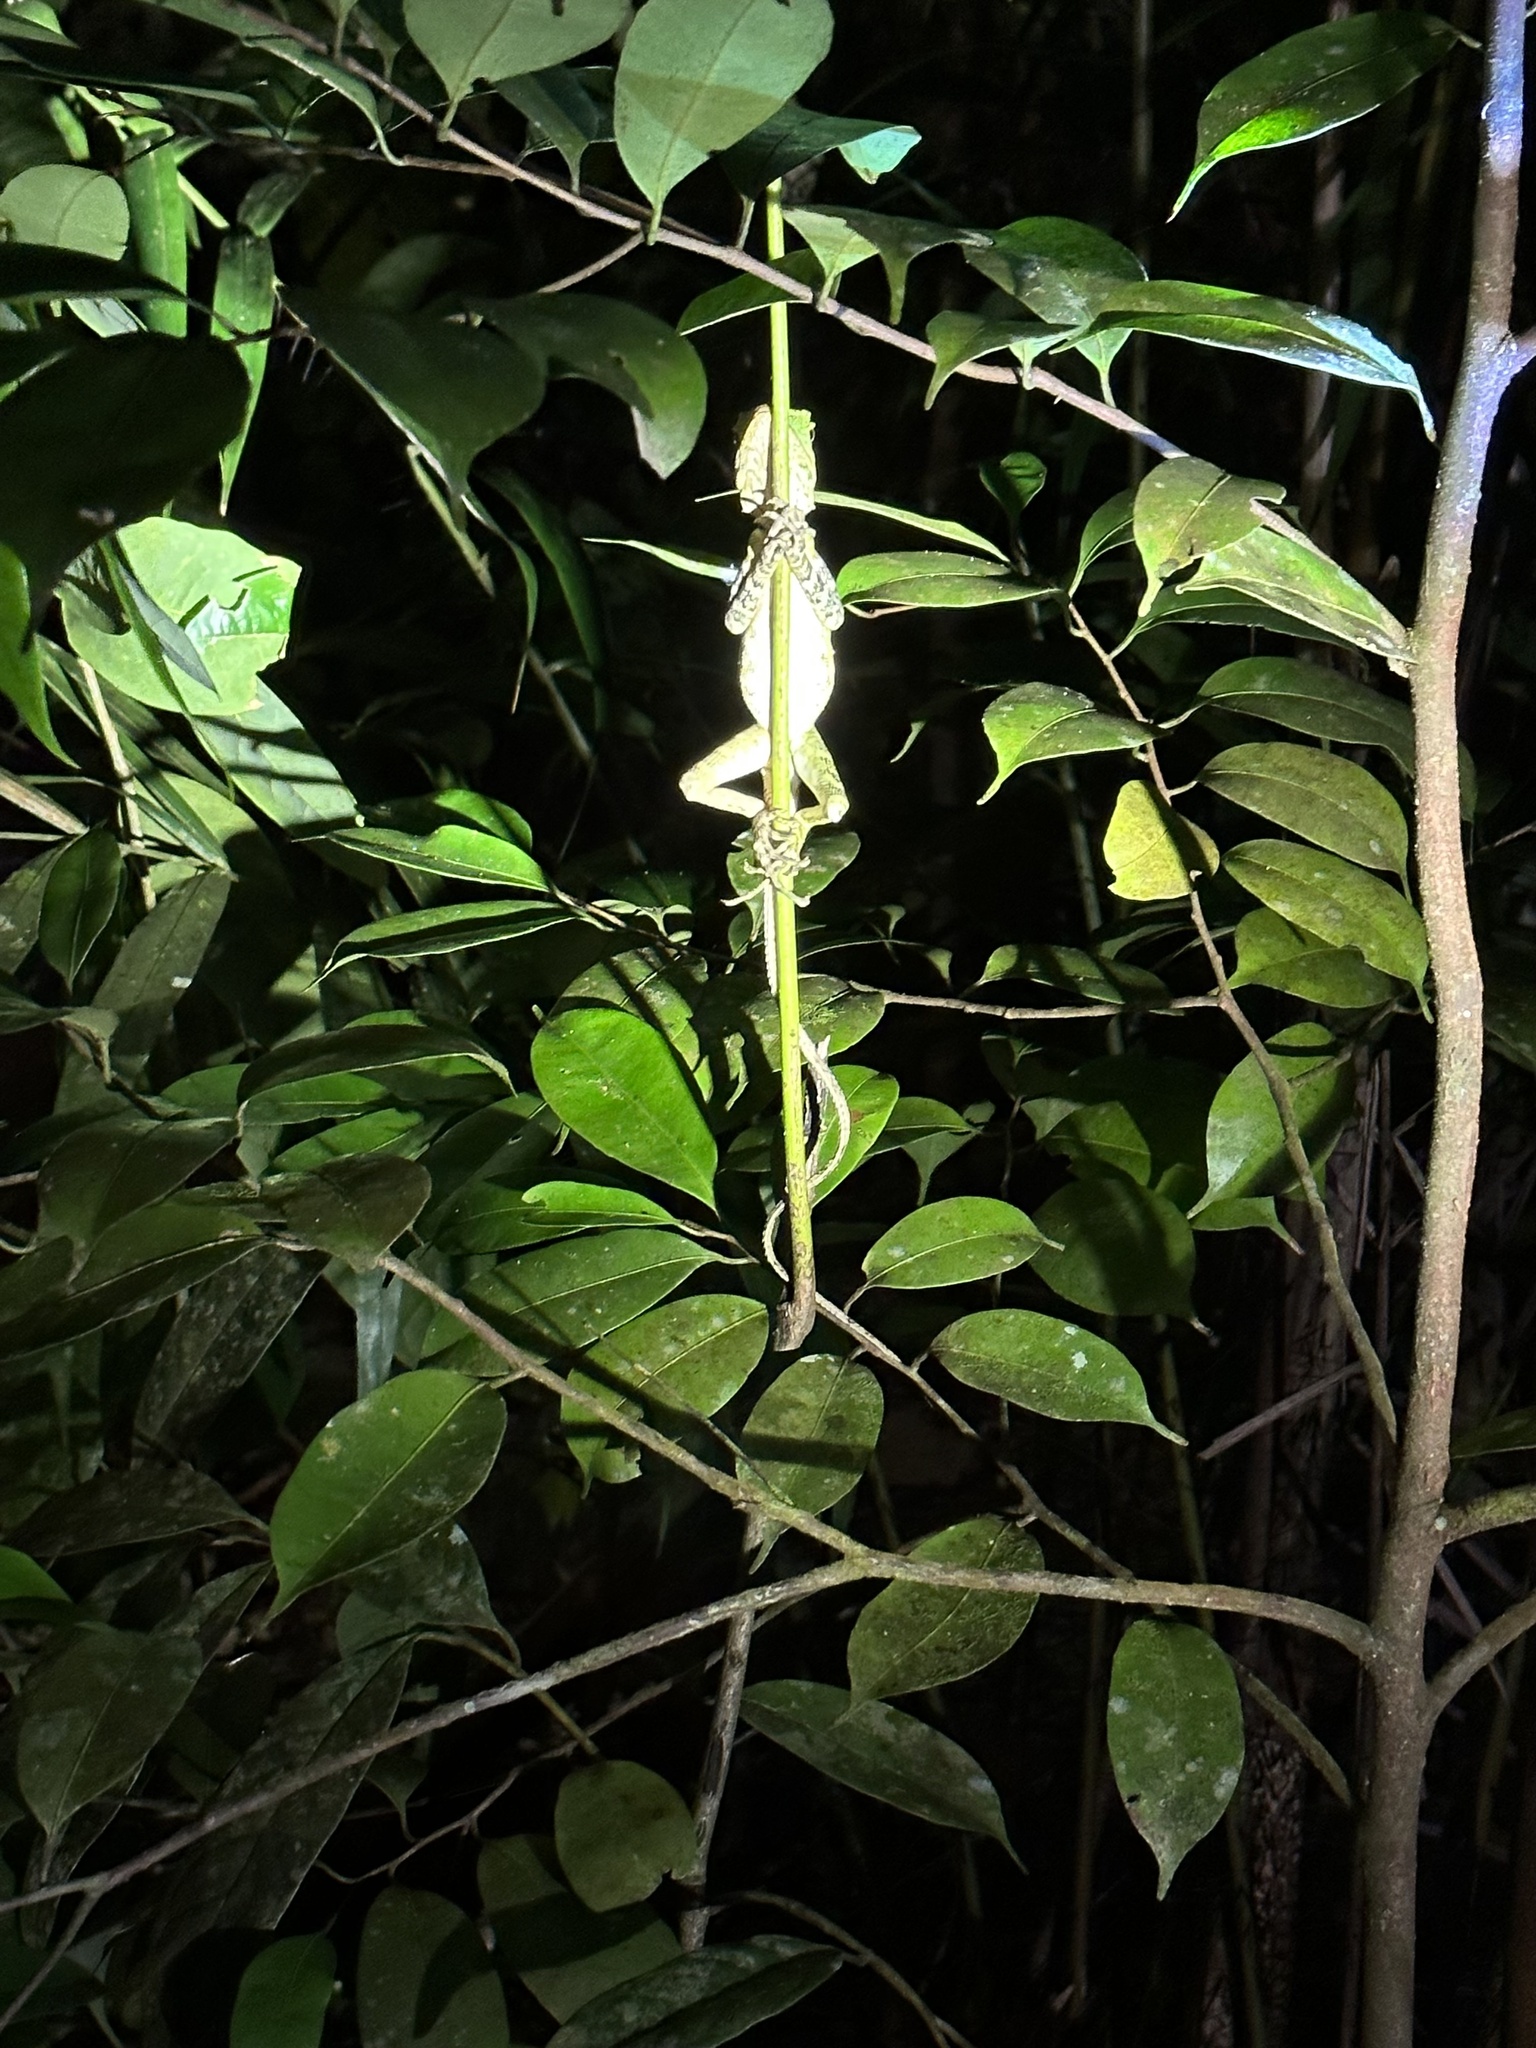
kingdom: Animalia
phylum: Chordata
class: Squamata
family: Agamidae
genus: Gonocephalus
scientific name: Gonocephalus liogaster
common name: Blue-eyed anglehead lizard
